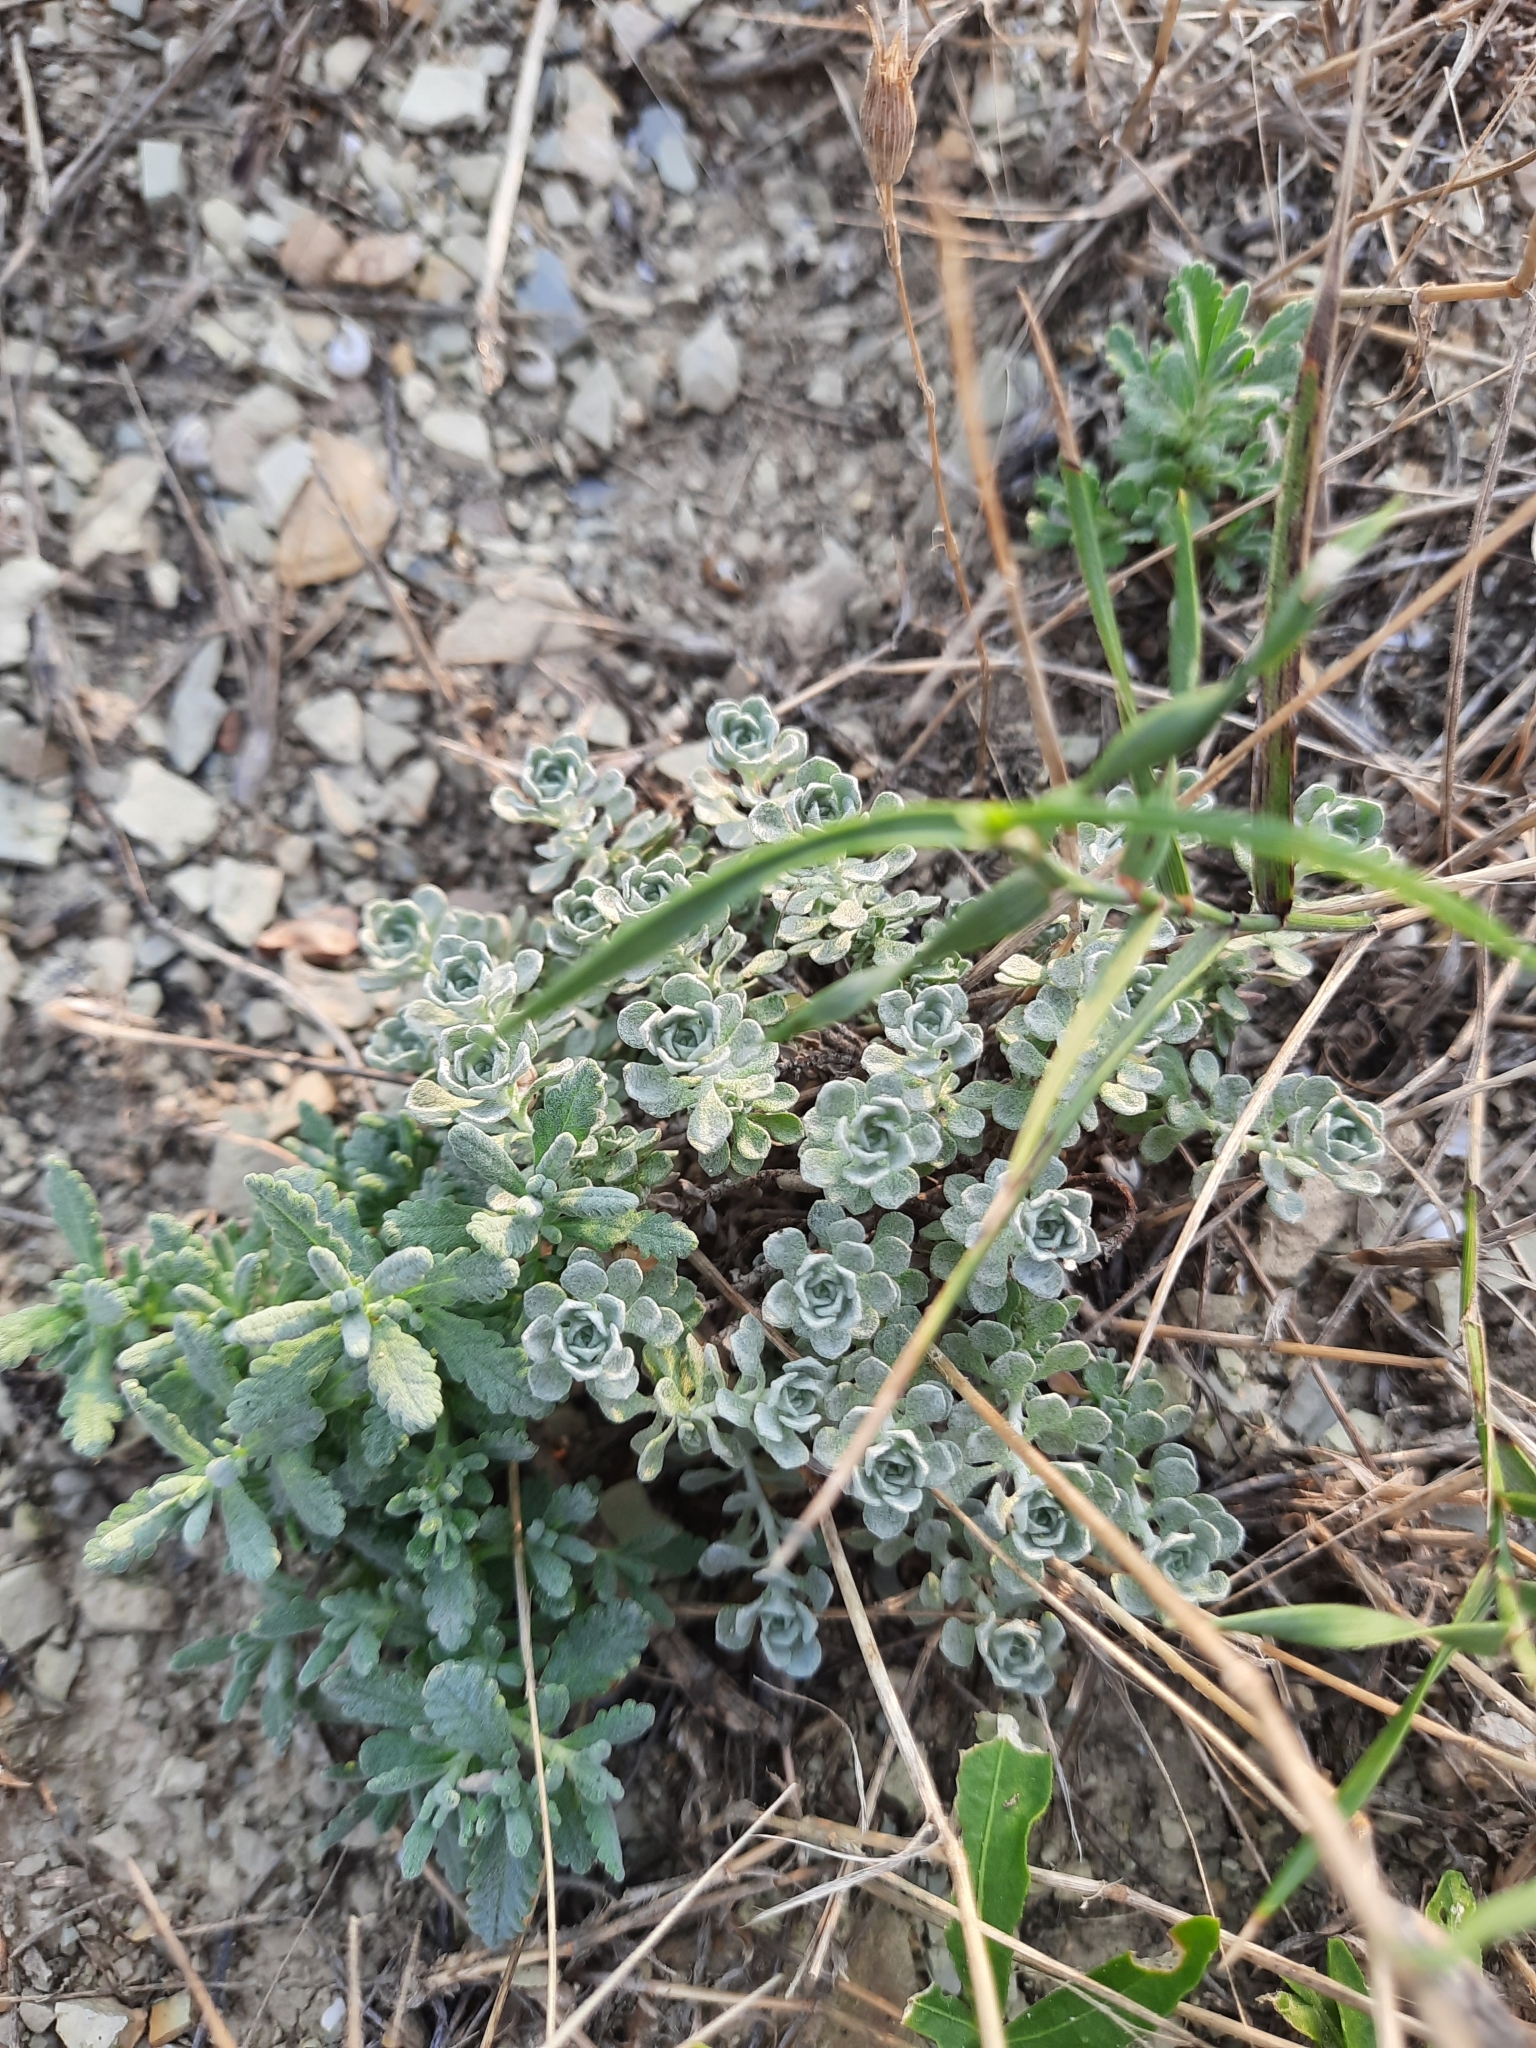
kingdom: Plantae
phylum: Tracheophyta
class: Magnoliopsida
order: Brassicales
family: Brassicaceae
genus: Odontarrhena
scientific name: Odontarrhena obtusifolia
